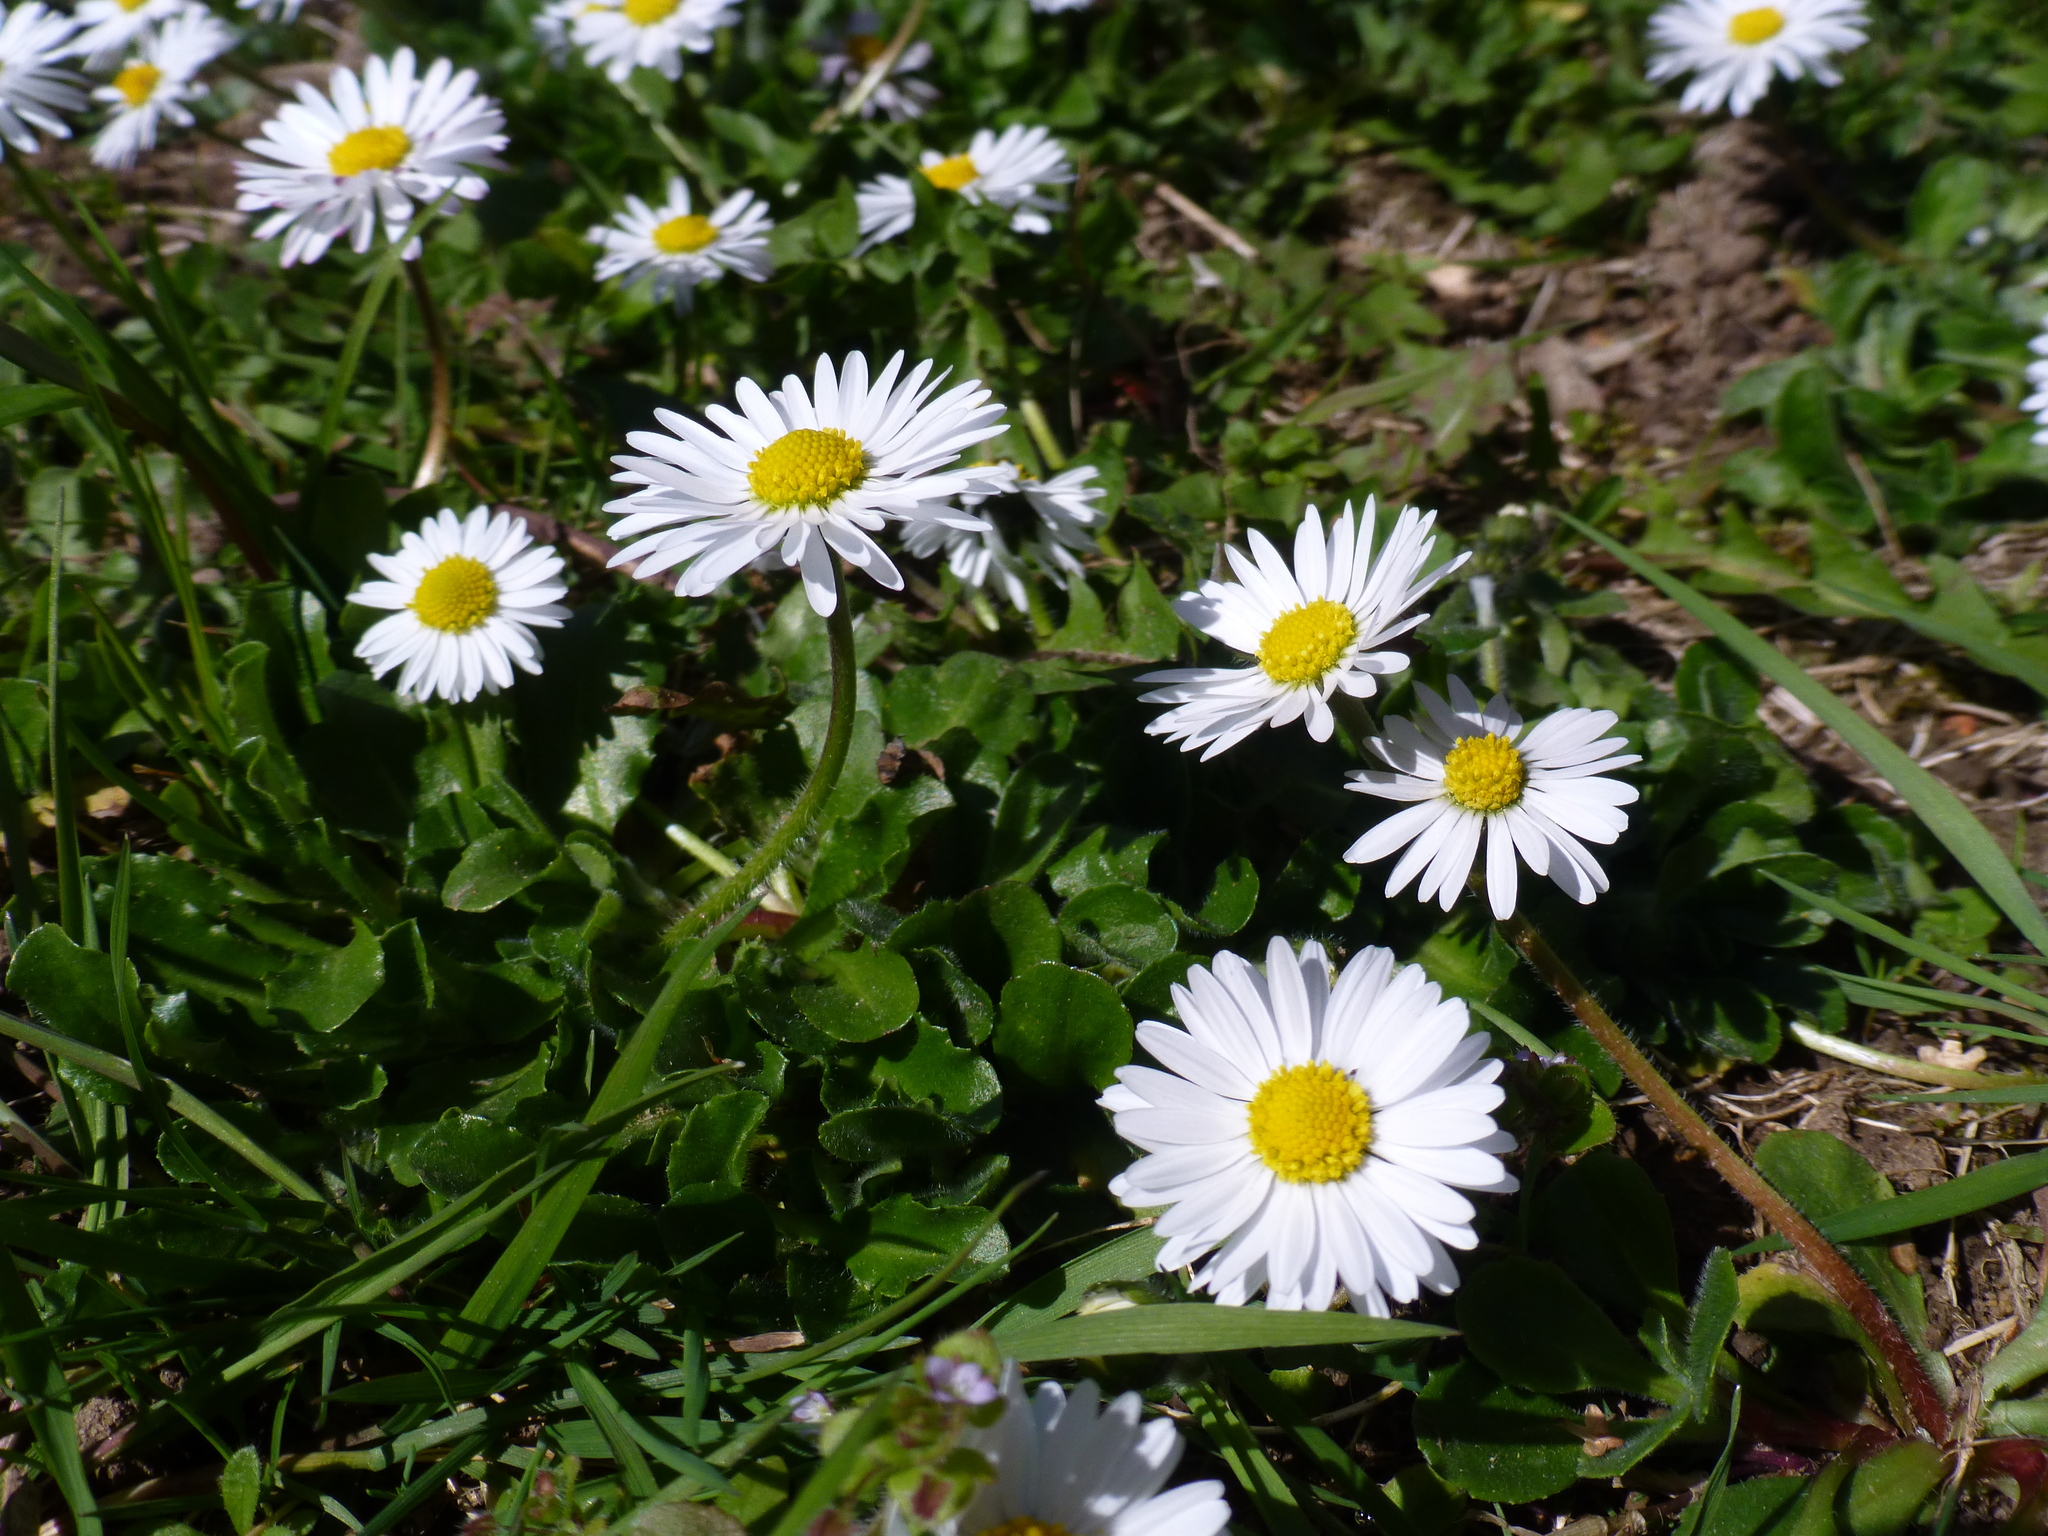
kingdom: Plantae
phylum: Tracheophyta
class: Magnoliopsida
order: Asterales
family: Asteraceae
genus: Bellis
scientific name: Bellis perennis
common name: Lawndaisy
